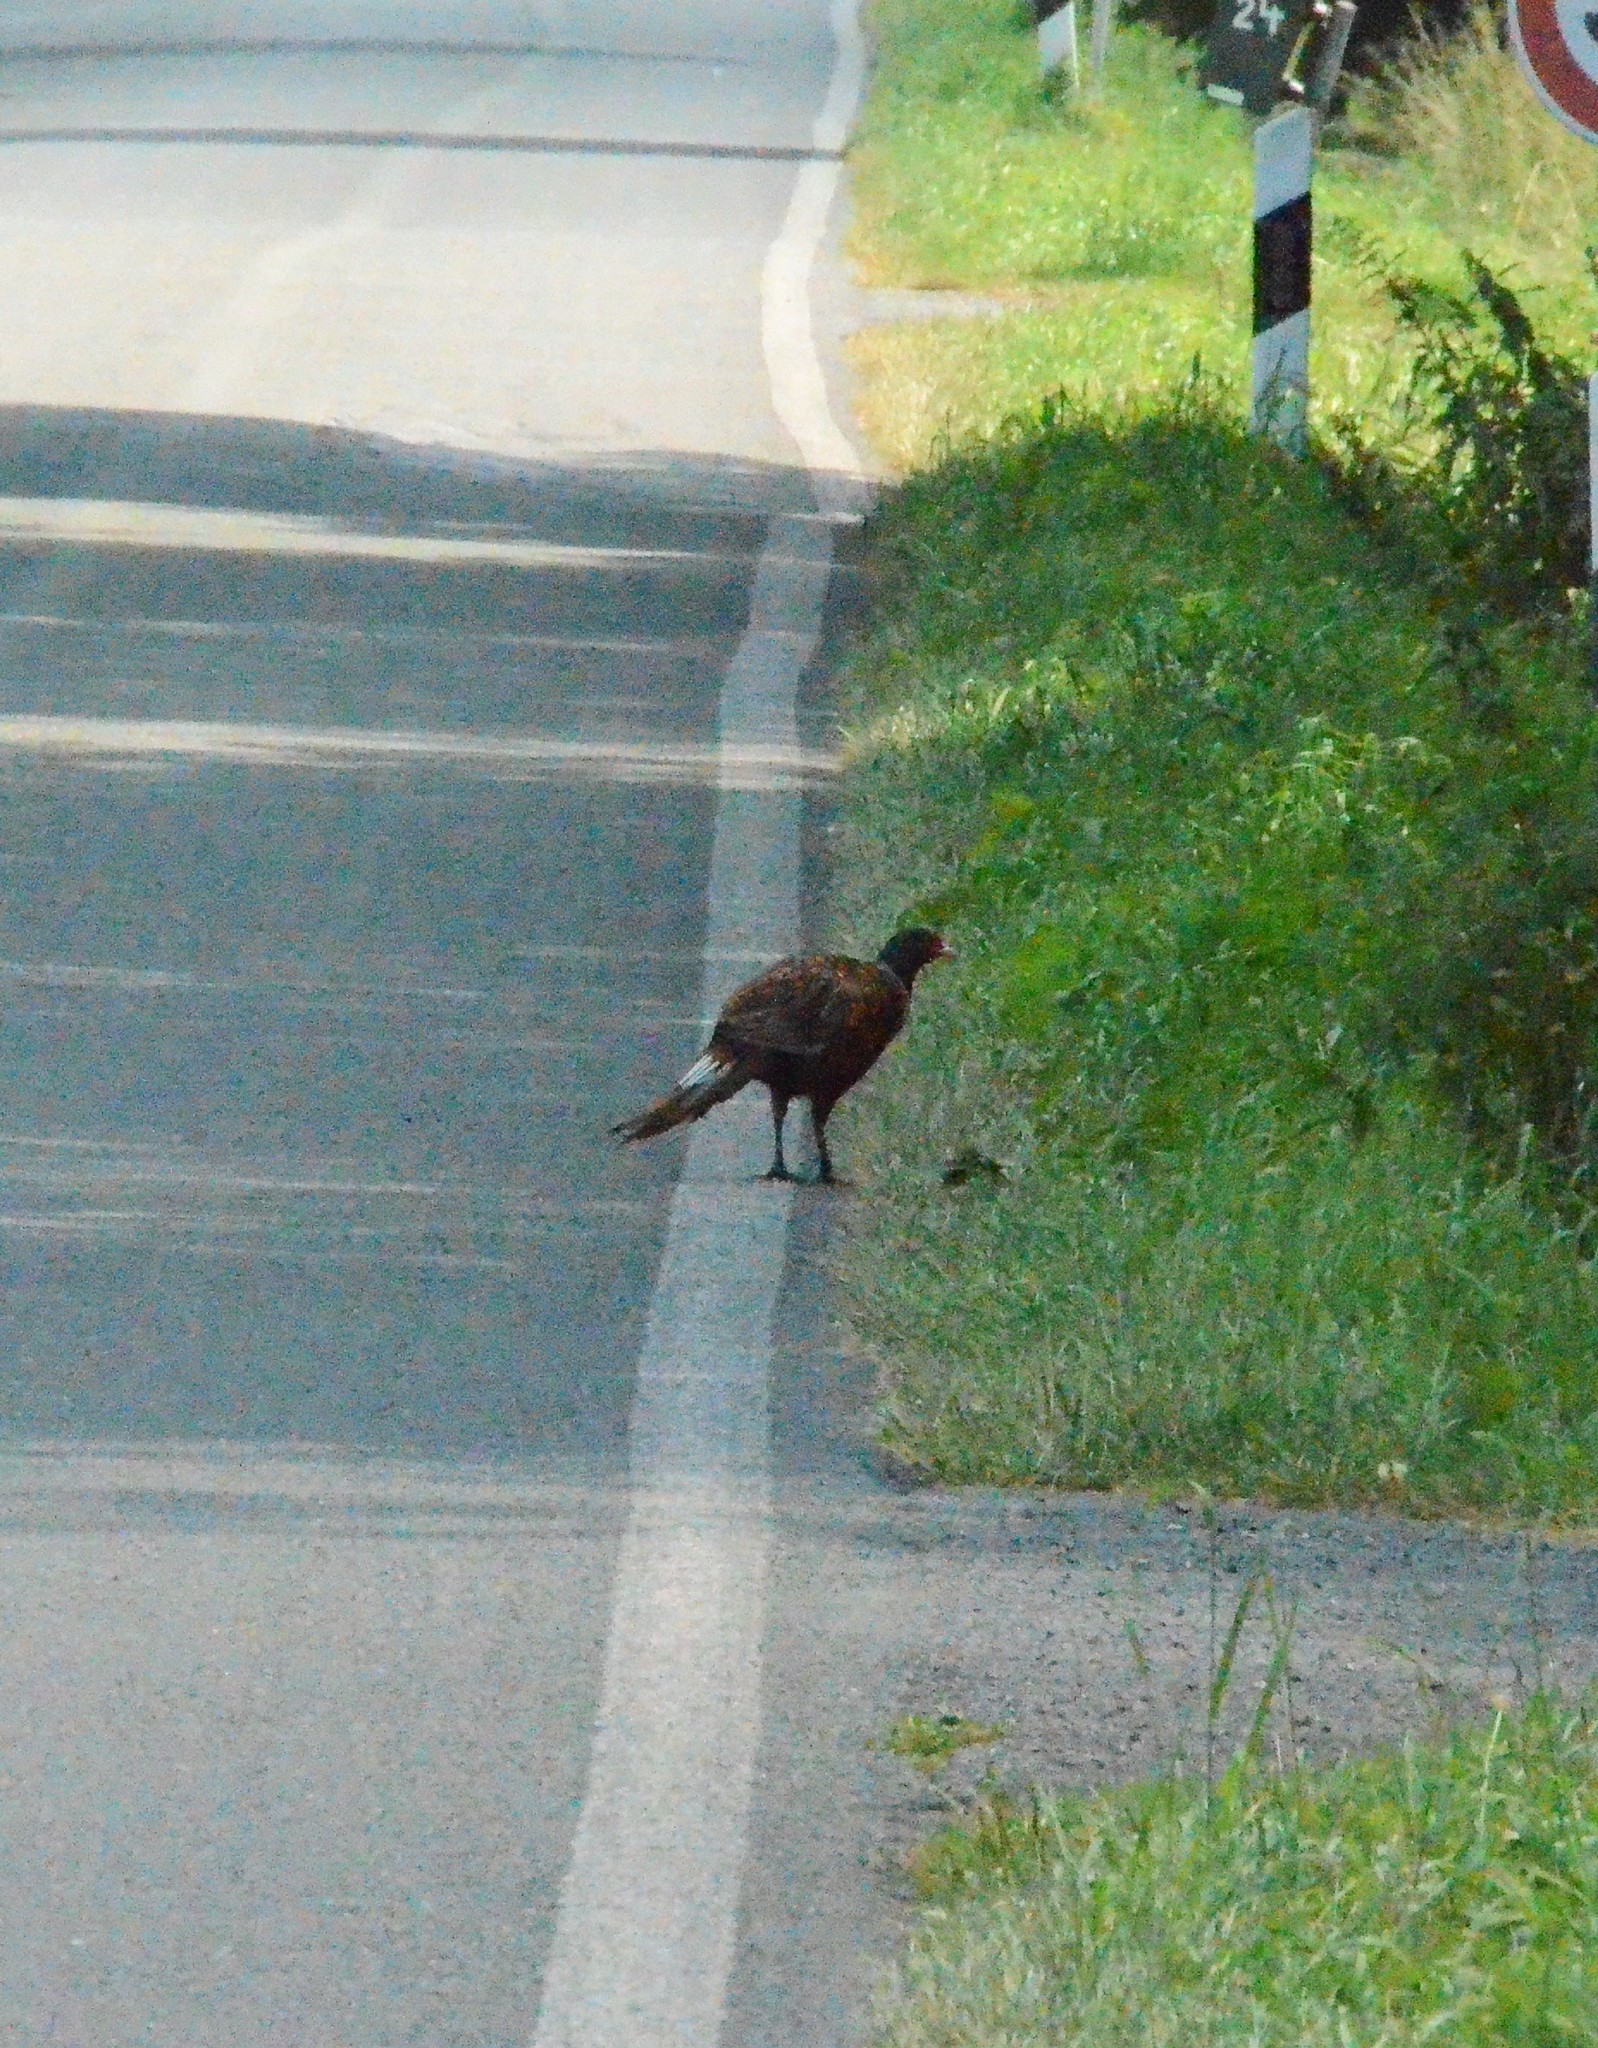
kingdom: Animalia
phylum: Chordata
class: Aves
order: Galliformes
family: Phasianidae
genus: Phasianus
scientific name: Phasianus colchicus
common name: Common pheasant
